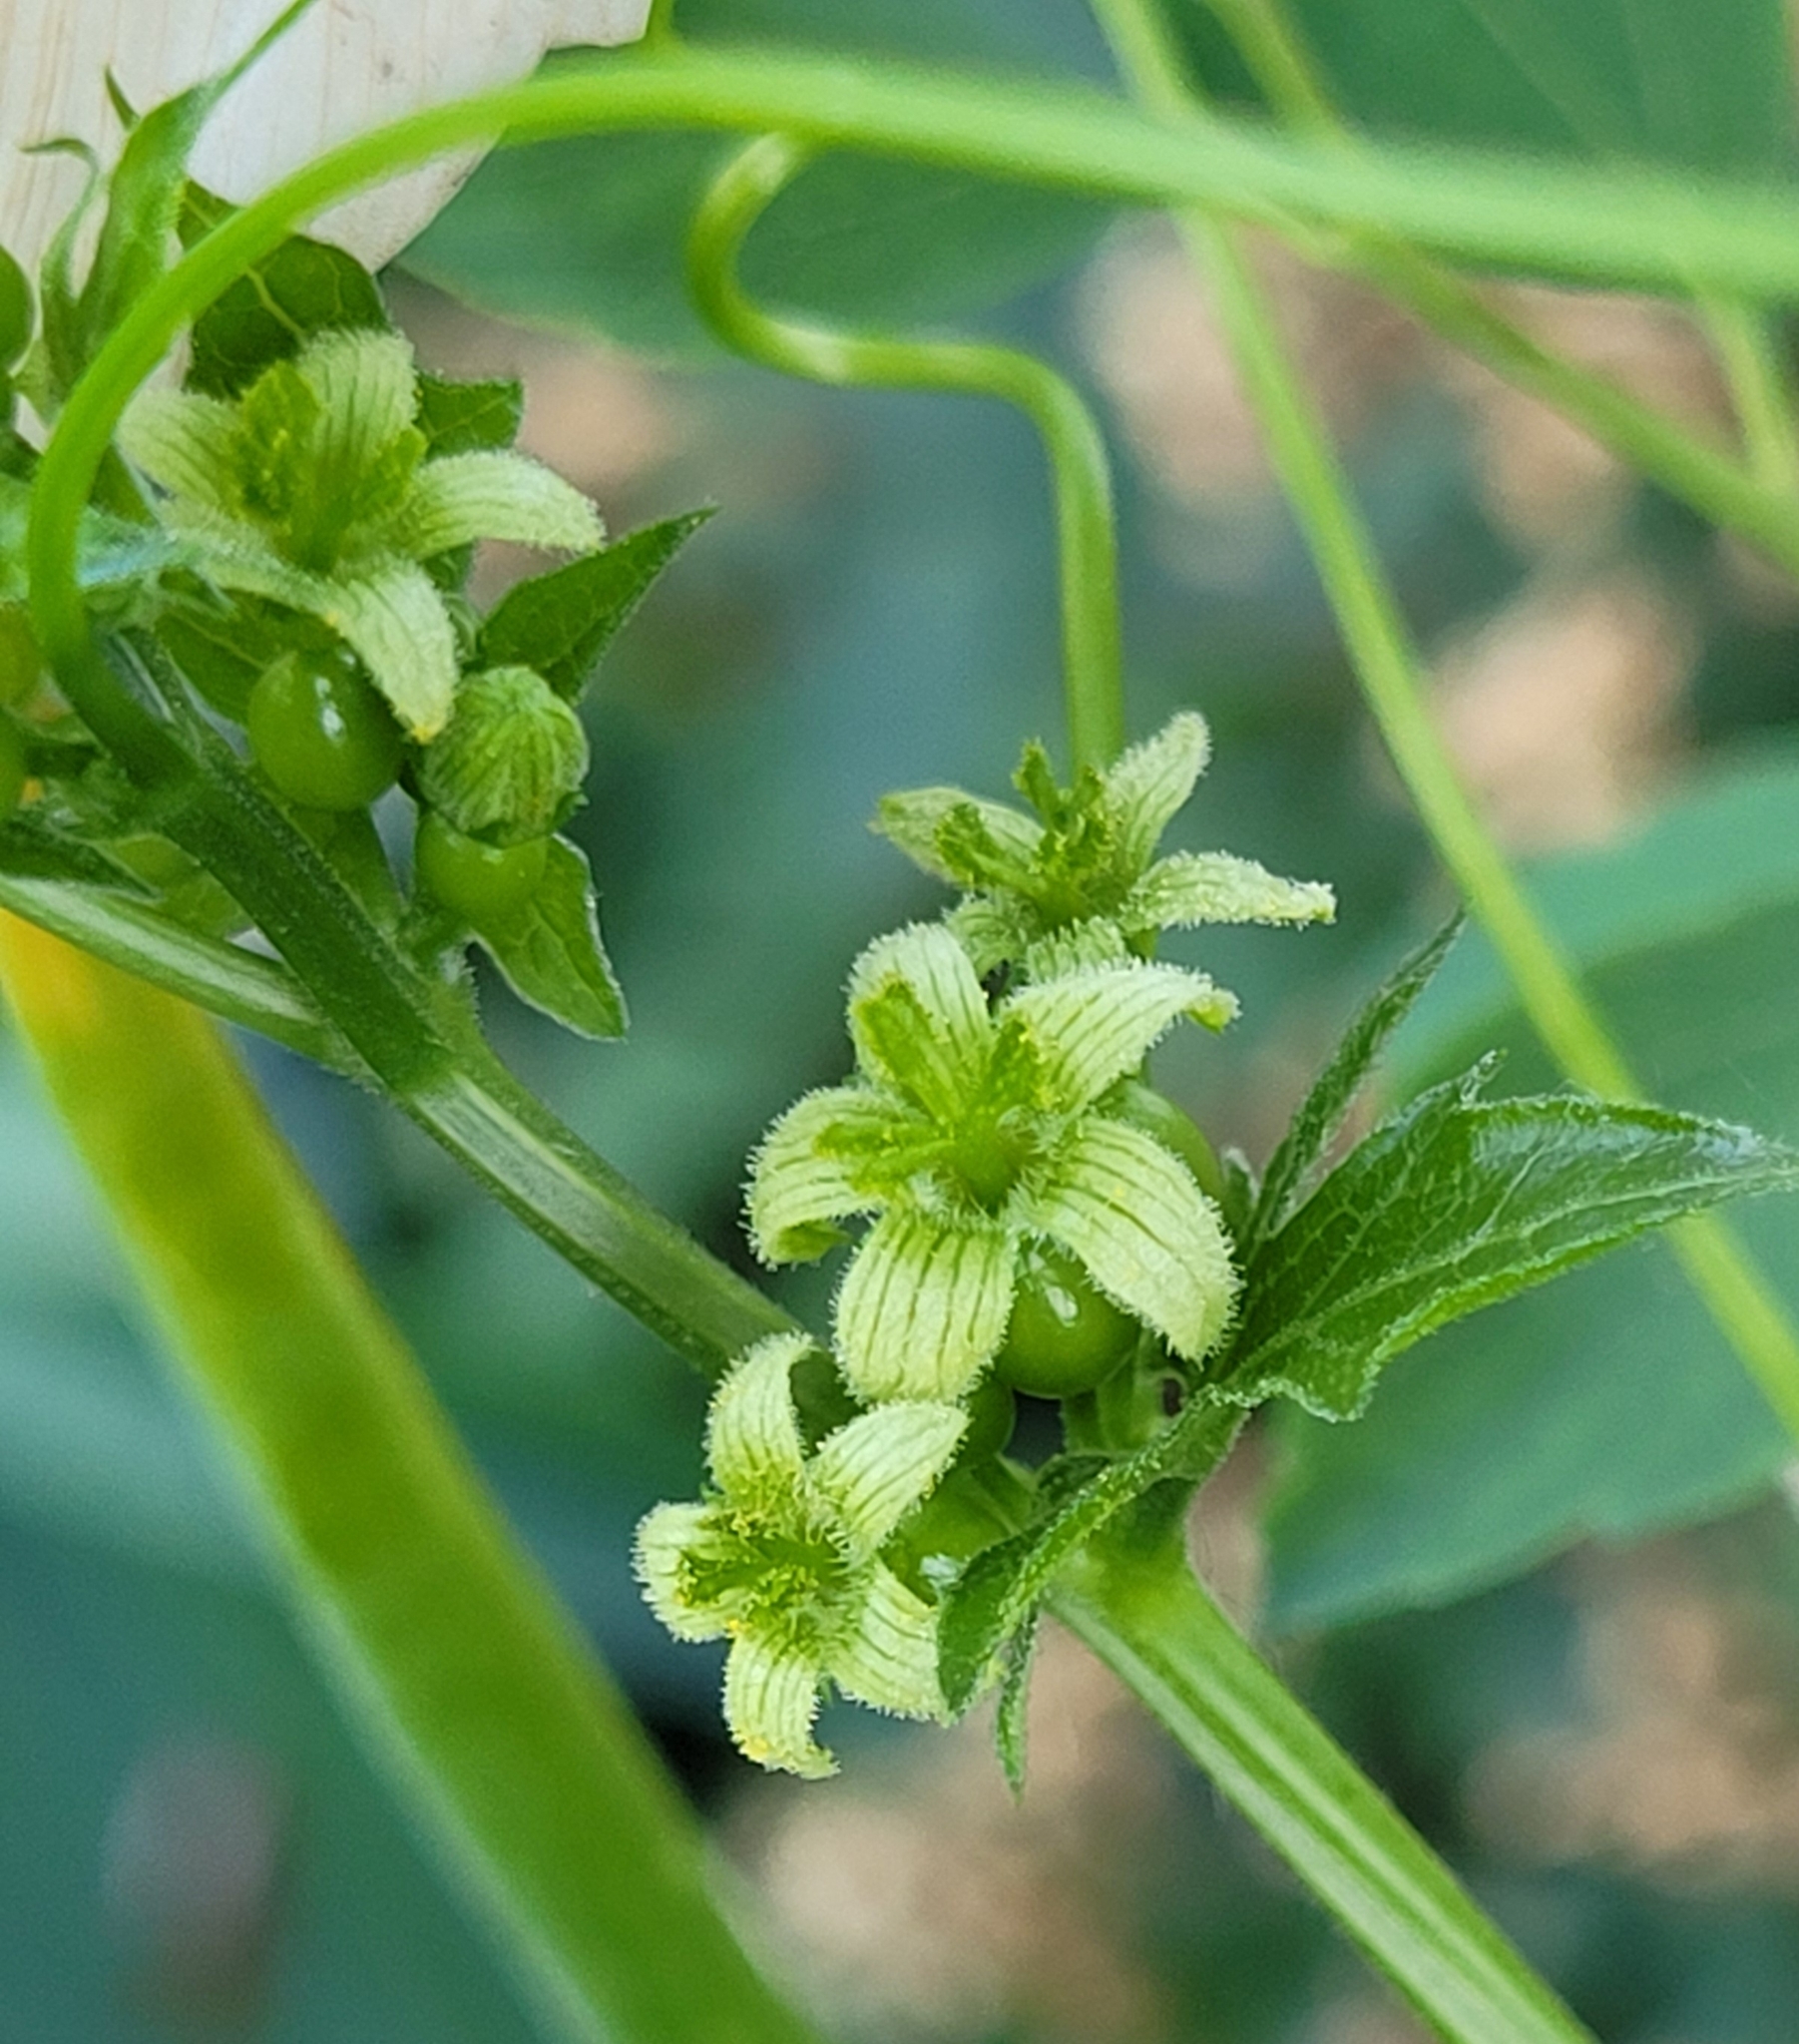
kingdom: Plantae
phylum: Tracheophyta
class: Magnoliopsida
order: Cucurbitales
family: Cucurbitaceae
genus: Bryonia
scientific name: Bryonia cretica
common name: Cretan bryony
